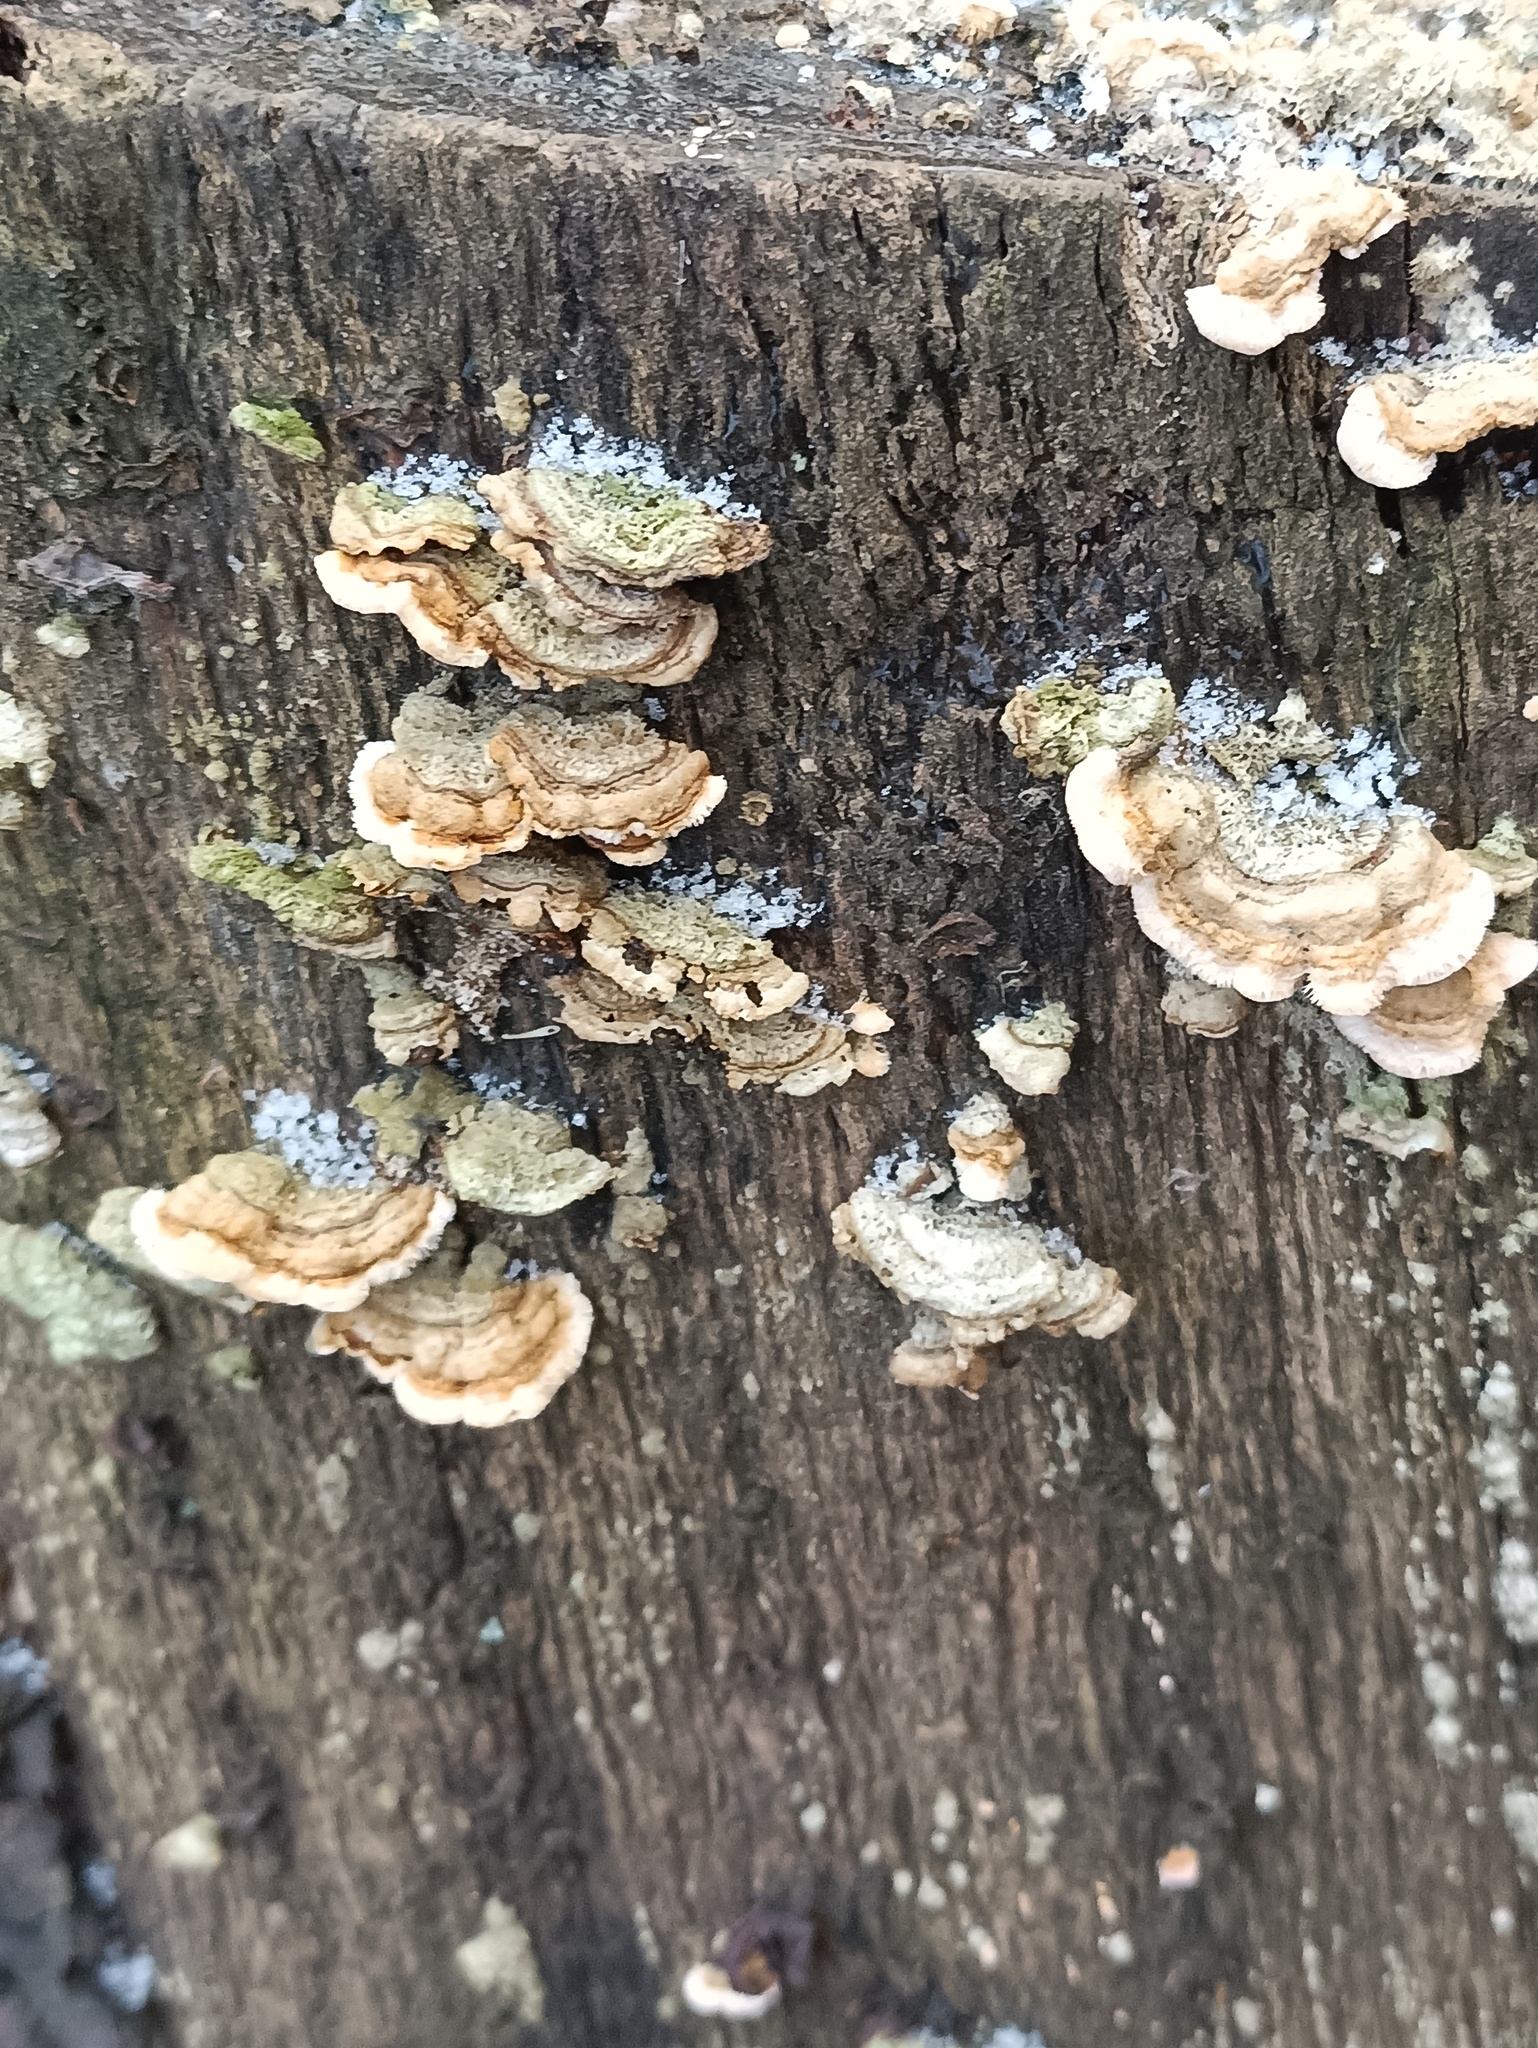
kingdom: Fungi
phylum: Basidiomycota
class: Agaricomycetes
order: Russulales
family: Stereaceae
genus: Stereum
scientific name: Stereum hirsutum
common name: Hairy curtain crust
